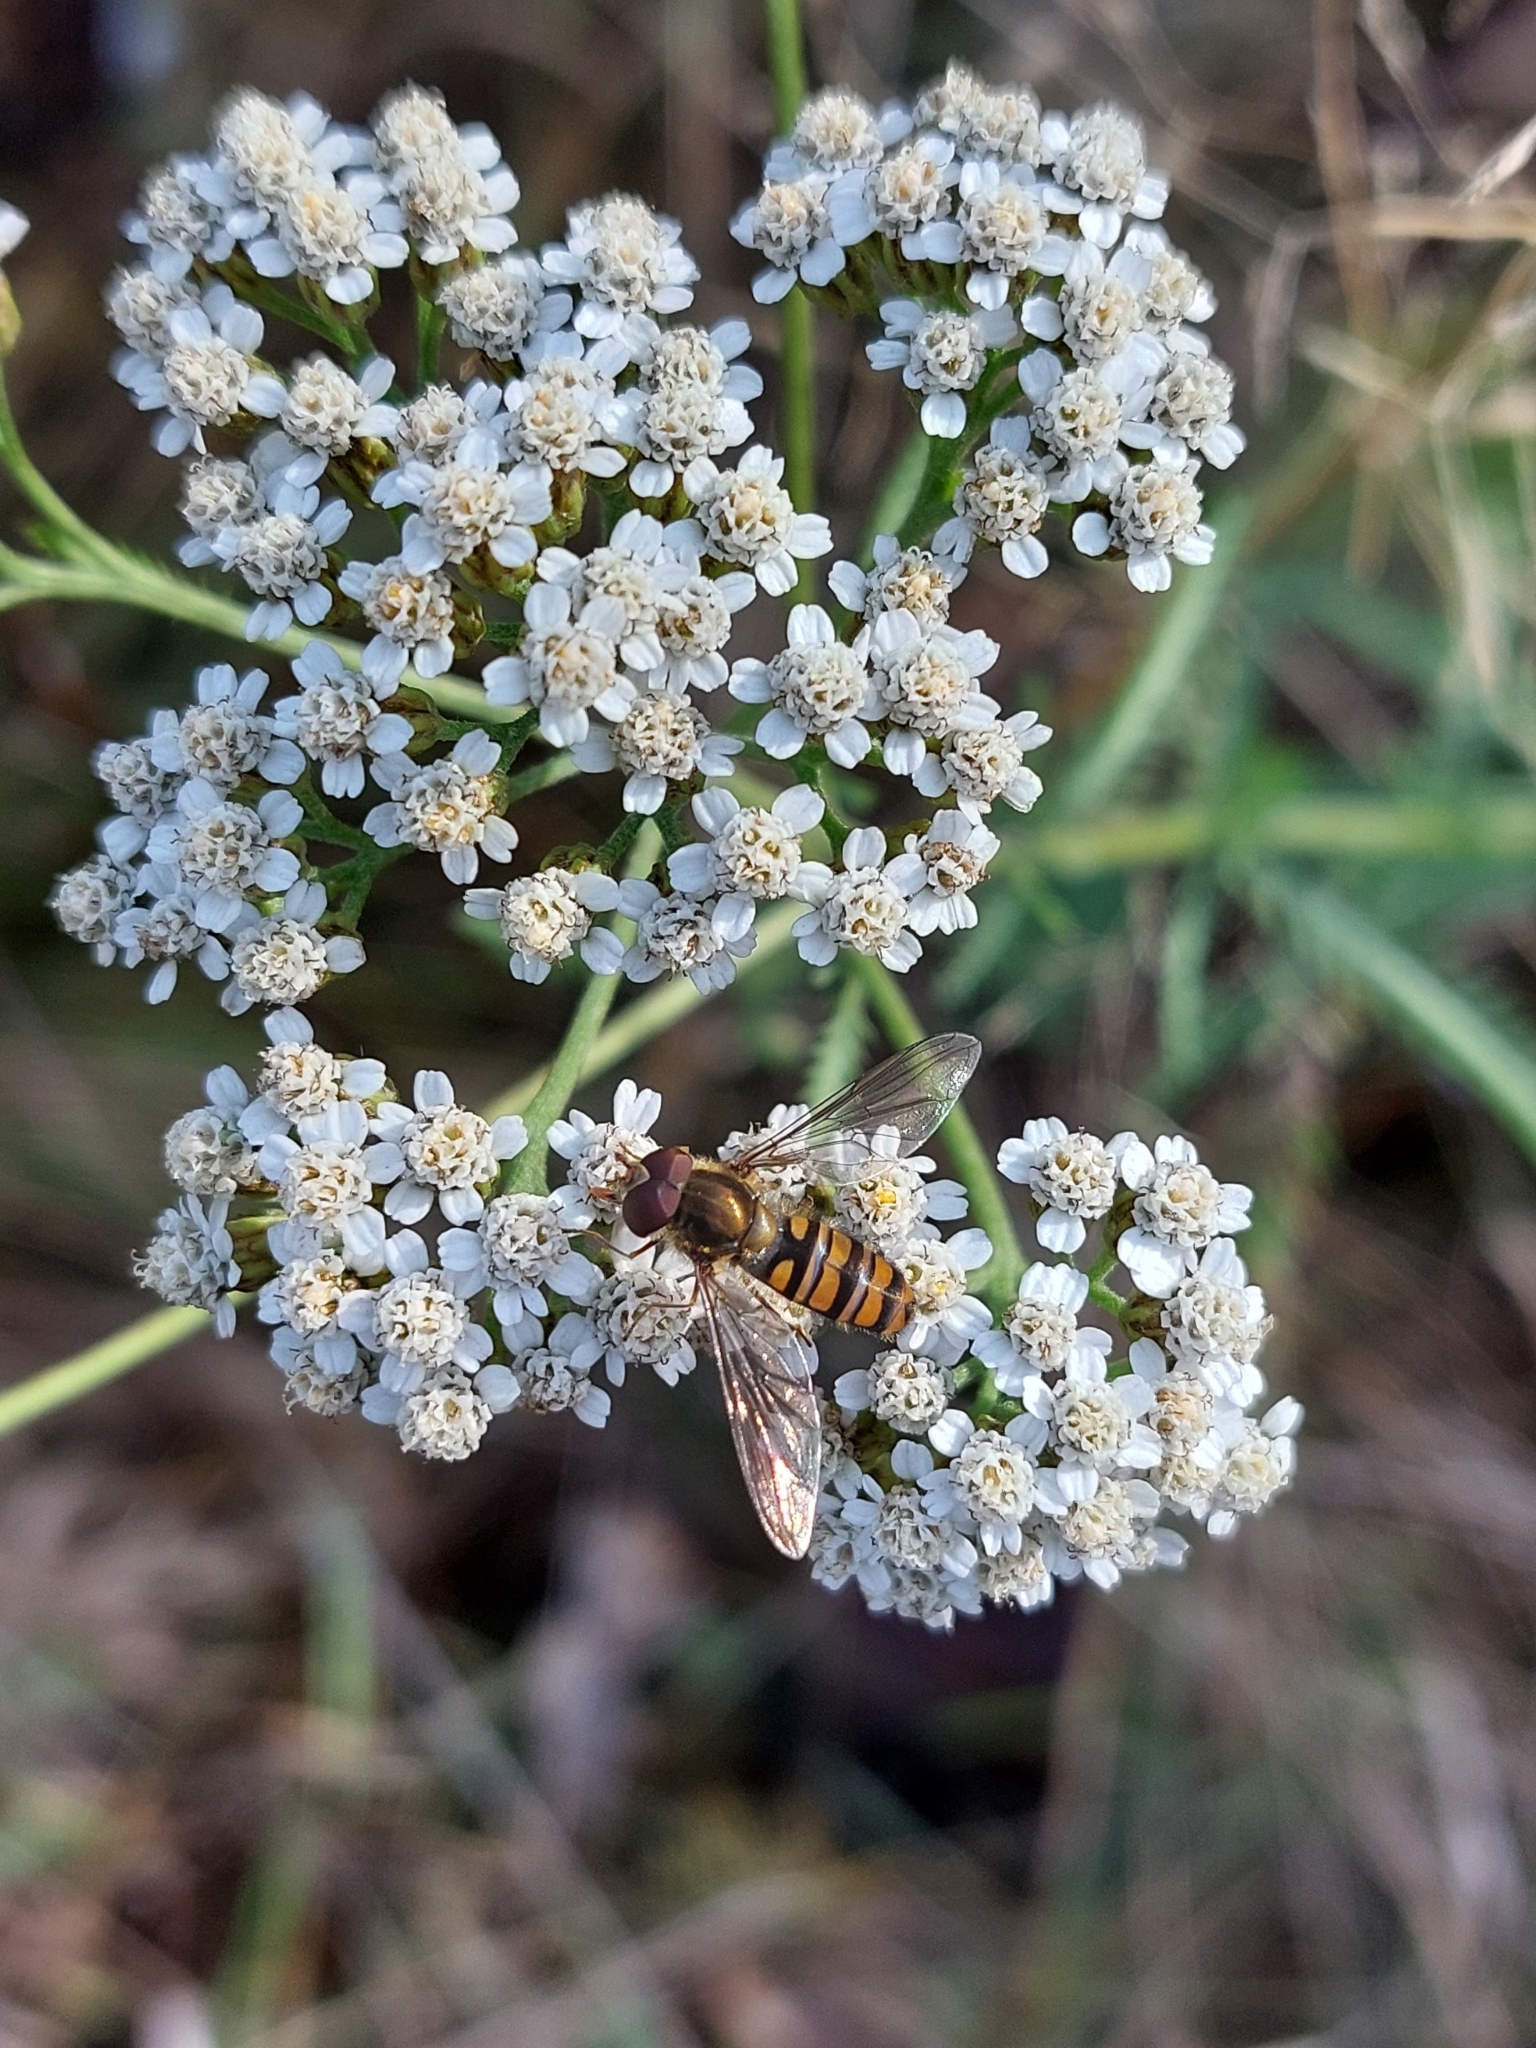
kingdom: Animalia
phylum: Arthropoda
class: Insecta
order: Diptera
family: Syrphidae
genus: Episyrphus
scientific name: Episyrphus balteatus
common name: Marmalade hoverfly
